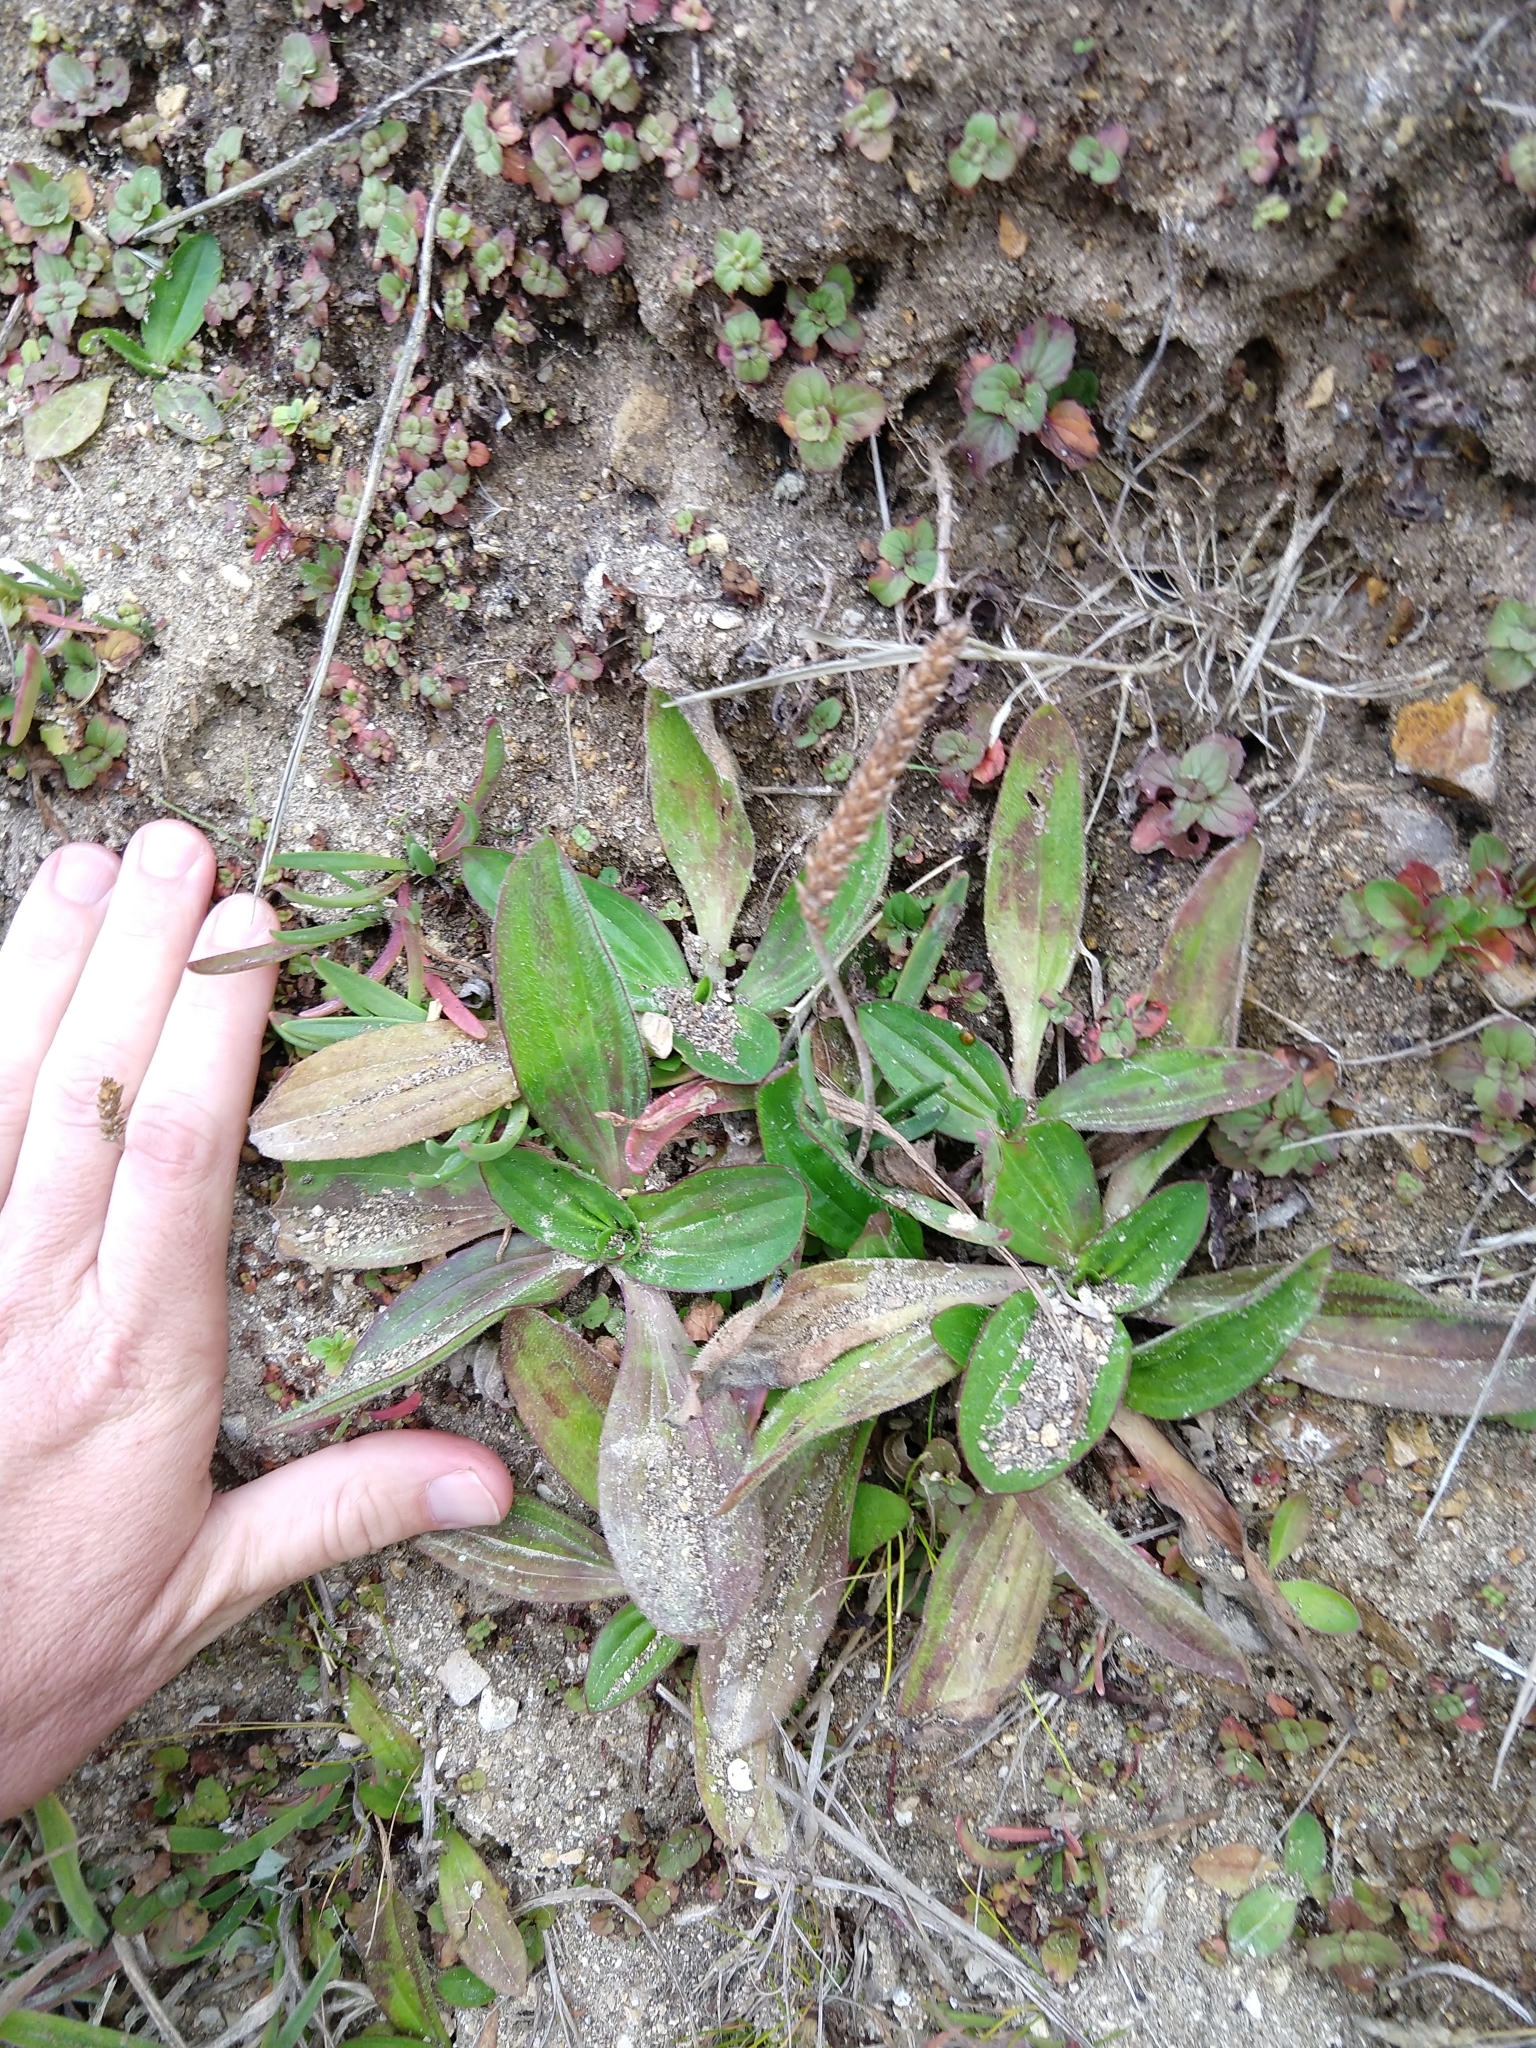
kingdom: Plantae
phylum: Tracheophyta
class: Magnoliopsida
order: Lamiales
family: Plantaginaceae
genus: Plantago
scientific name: Plantago subnuda
